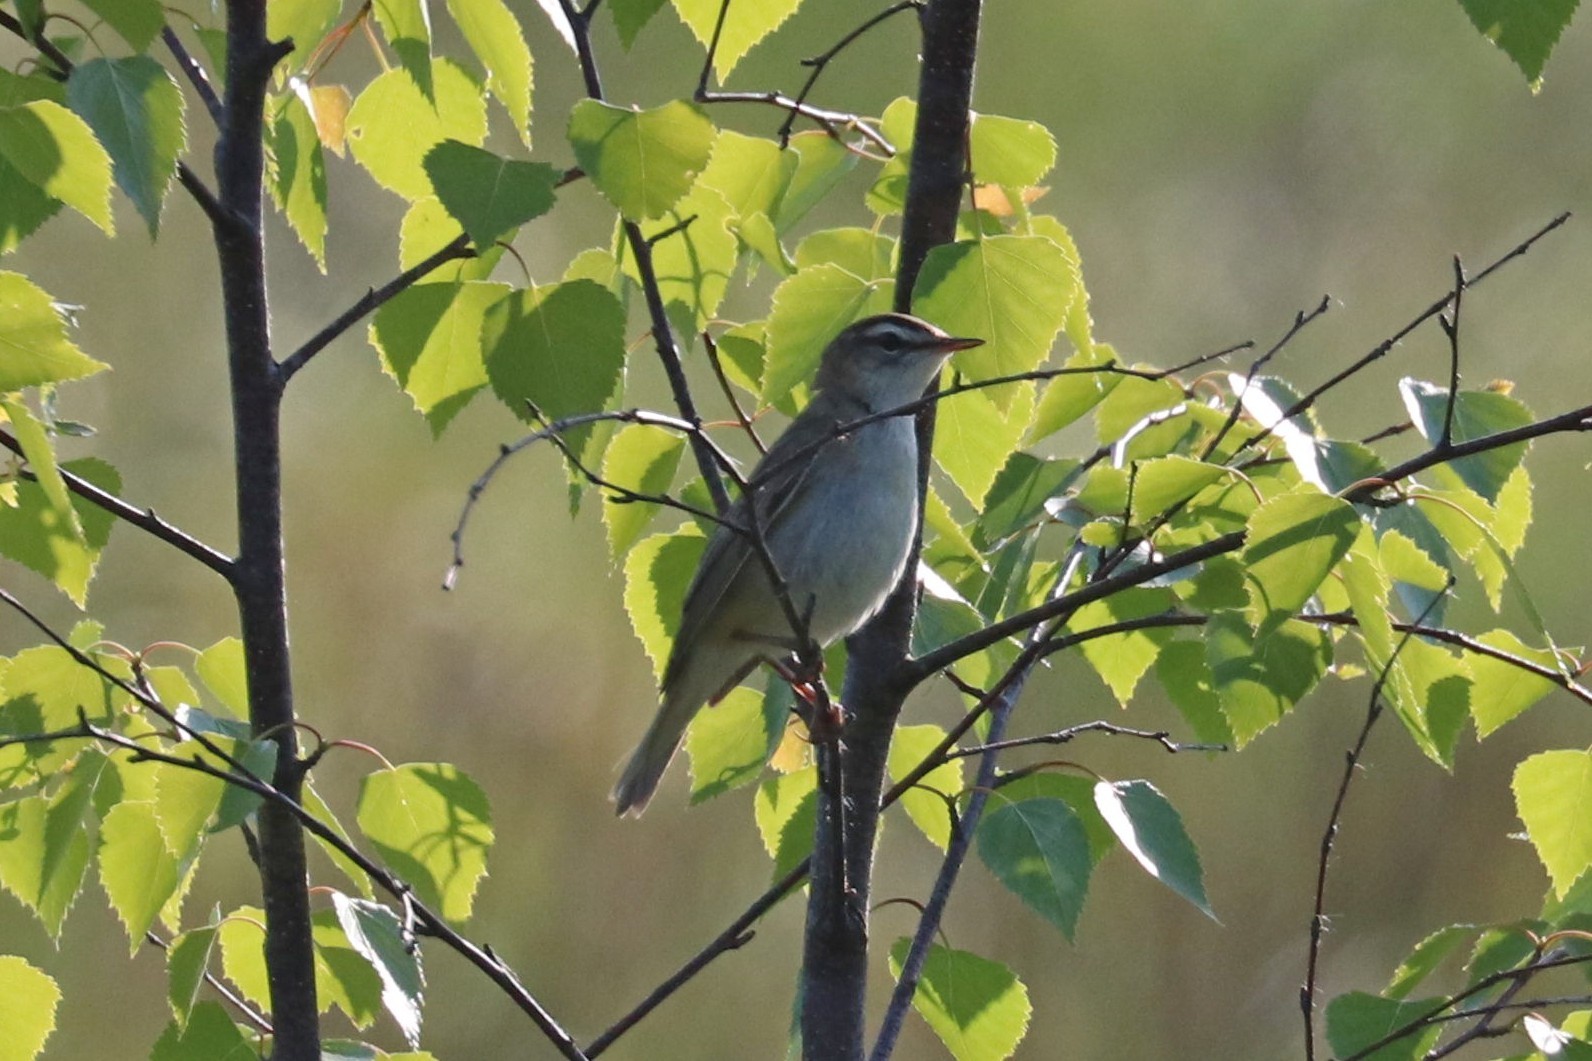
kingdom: Animalia
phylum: Chordata
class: Aves
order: Passeriformes
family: Acrocephalidae
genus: Acrocephalus
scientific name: Acrocephalus schoenobaenus
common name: Sedge warbler
